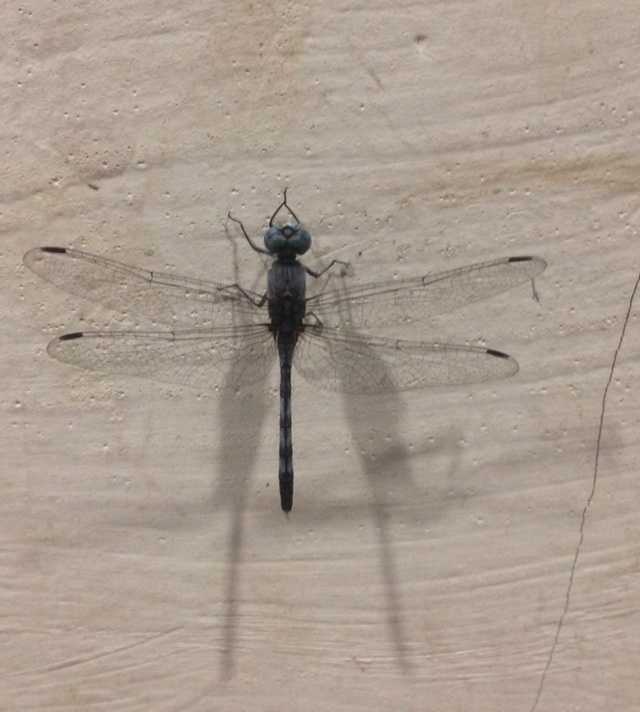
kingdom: Animalia
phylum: Arthropoda
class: Insecta
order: Odonata
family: Libellulidae
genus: Diplacodes
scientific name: Diplacodes trivialis
